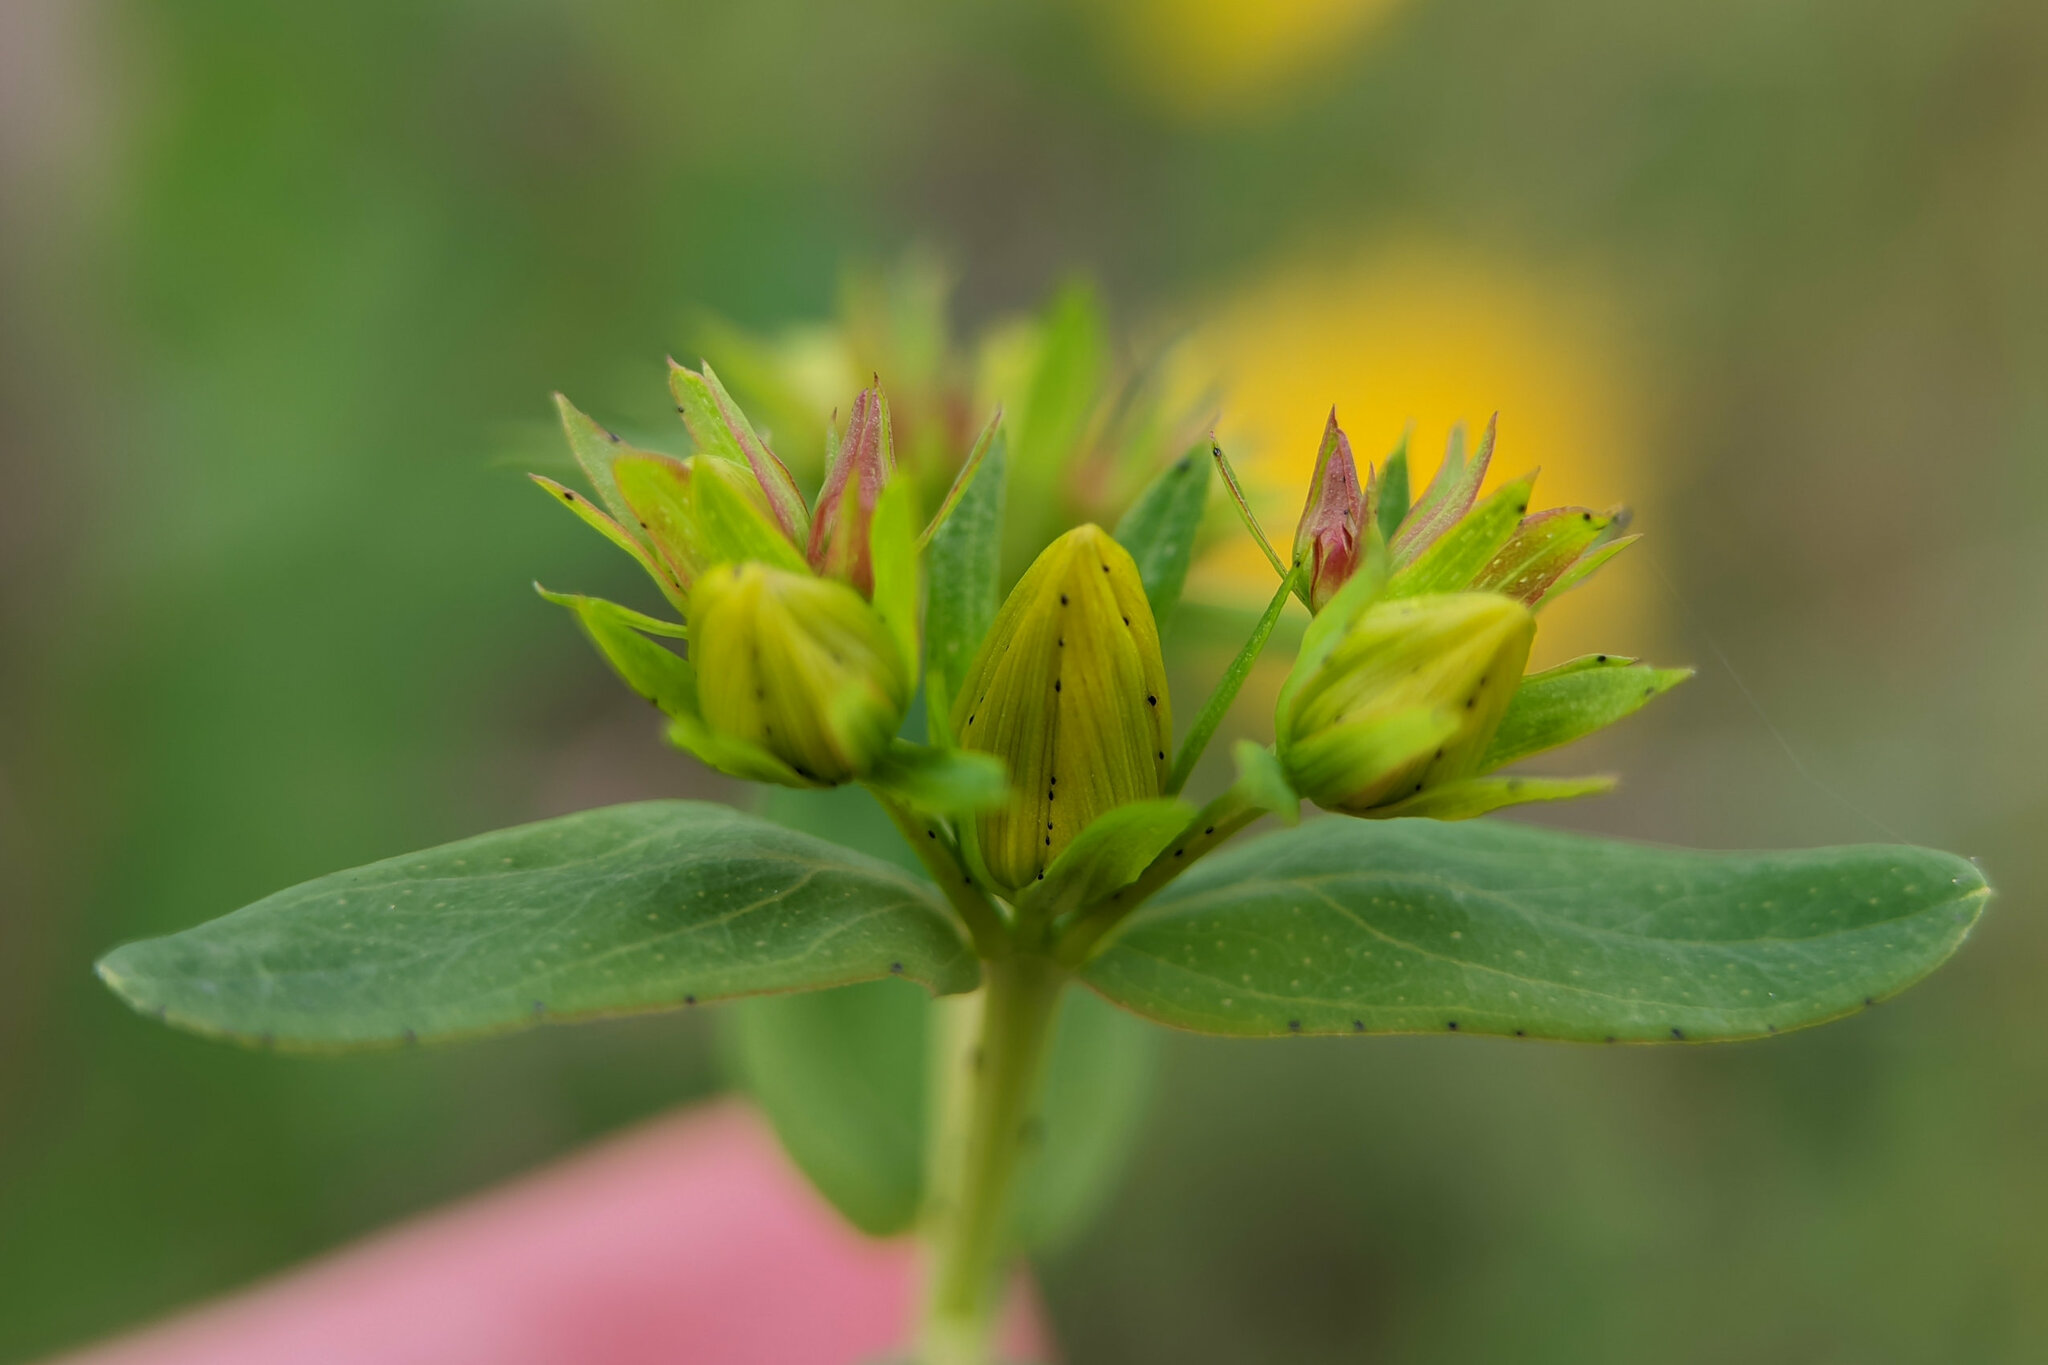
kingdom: Plantae
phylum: Tracheophyta
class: Magnoliopsida
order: Malpighiales
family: Hypericaceae
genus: Hypericum
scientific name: Hypericum perforatum
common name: Common st. johnswort
